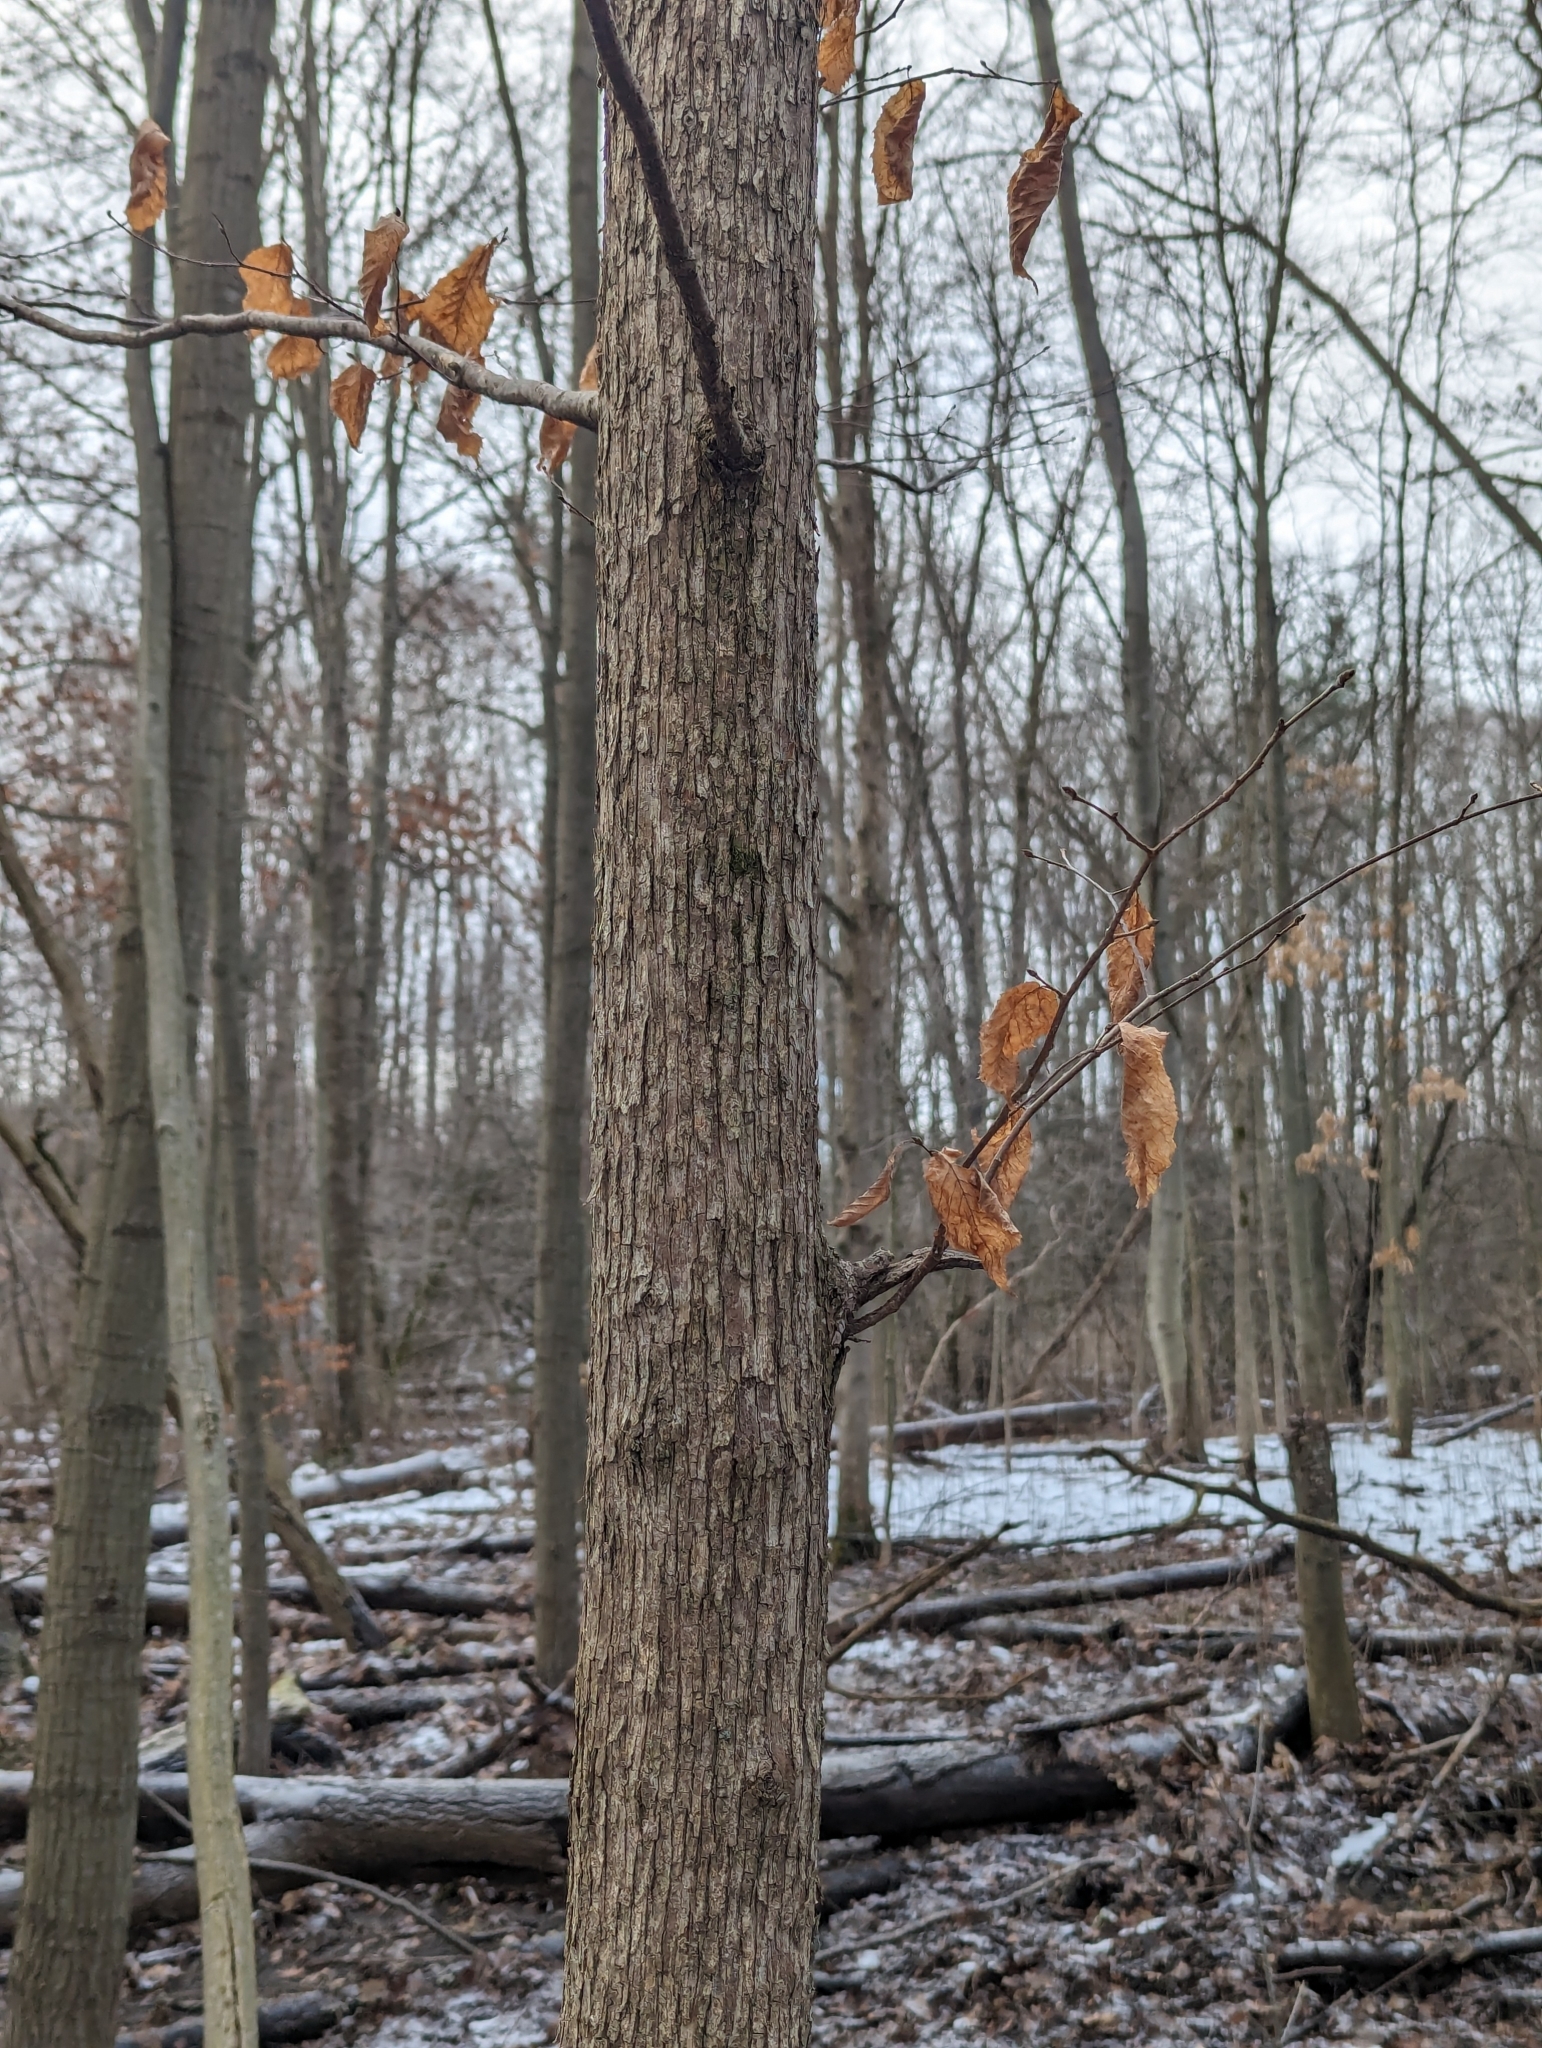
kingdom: Plantae
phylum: Tracheophyta
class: Magnoliopsida
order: Fagales
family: Betulaceae
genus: Ostrya
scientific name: Ostrya virginiana
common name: Ironwood
